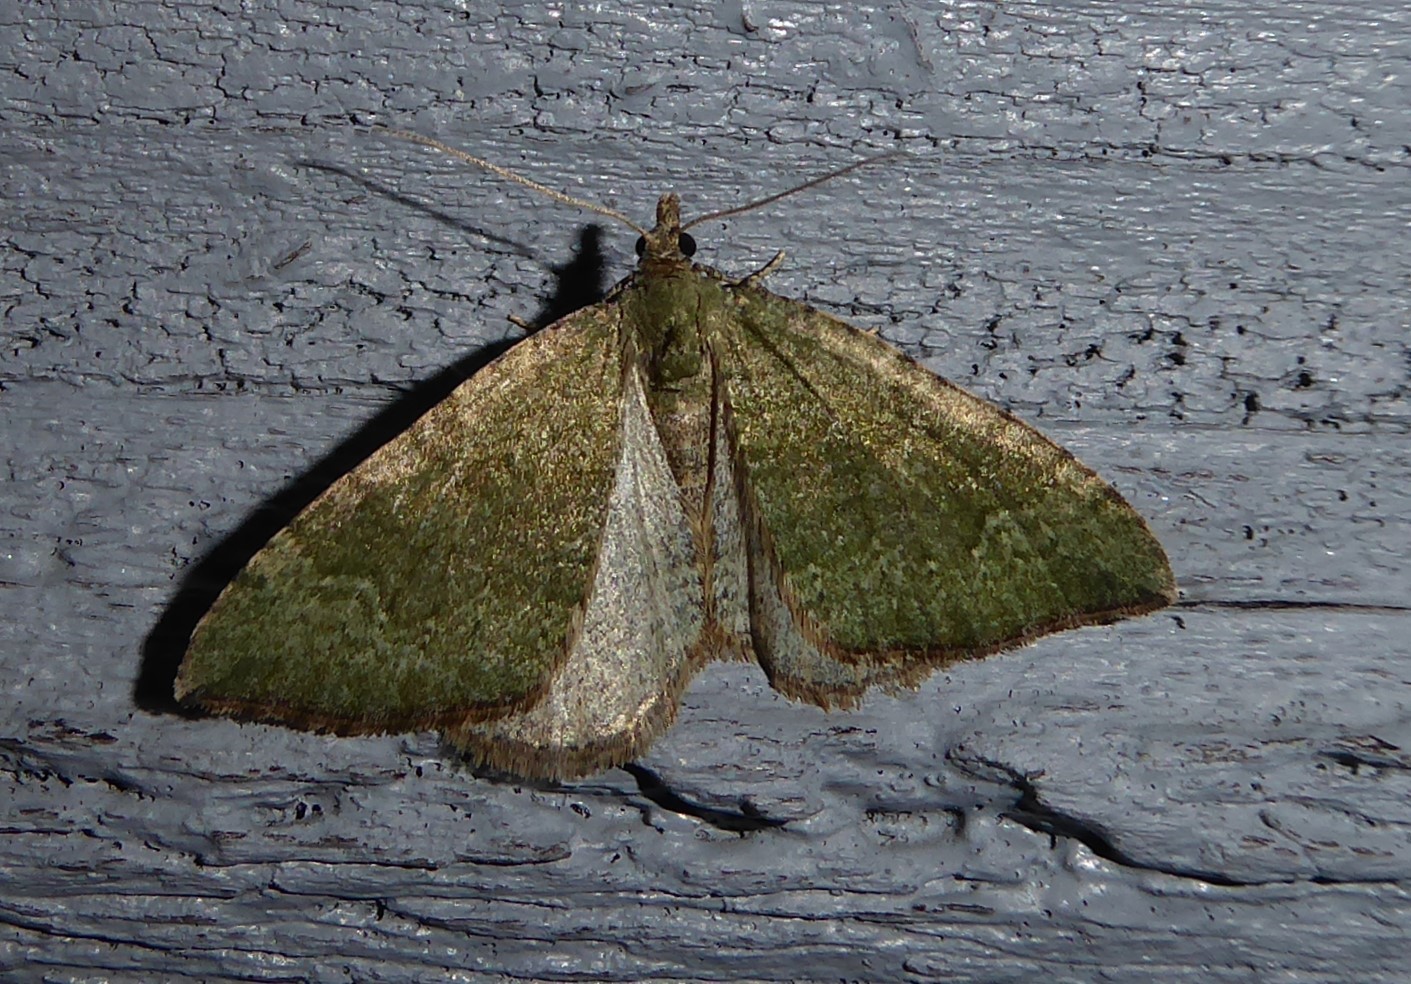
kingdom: Animalia
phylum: Arthropoda
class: Insecta
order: Lepidoptera
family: Geometridae
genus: Epyaxa
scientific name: Epyaxa rosearia
